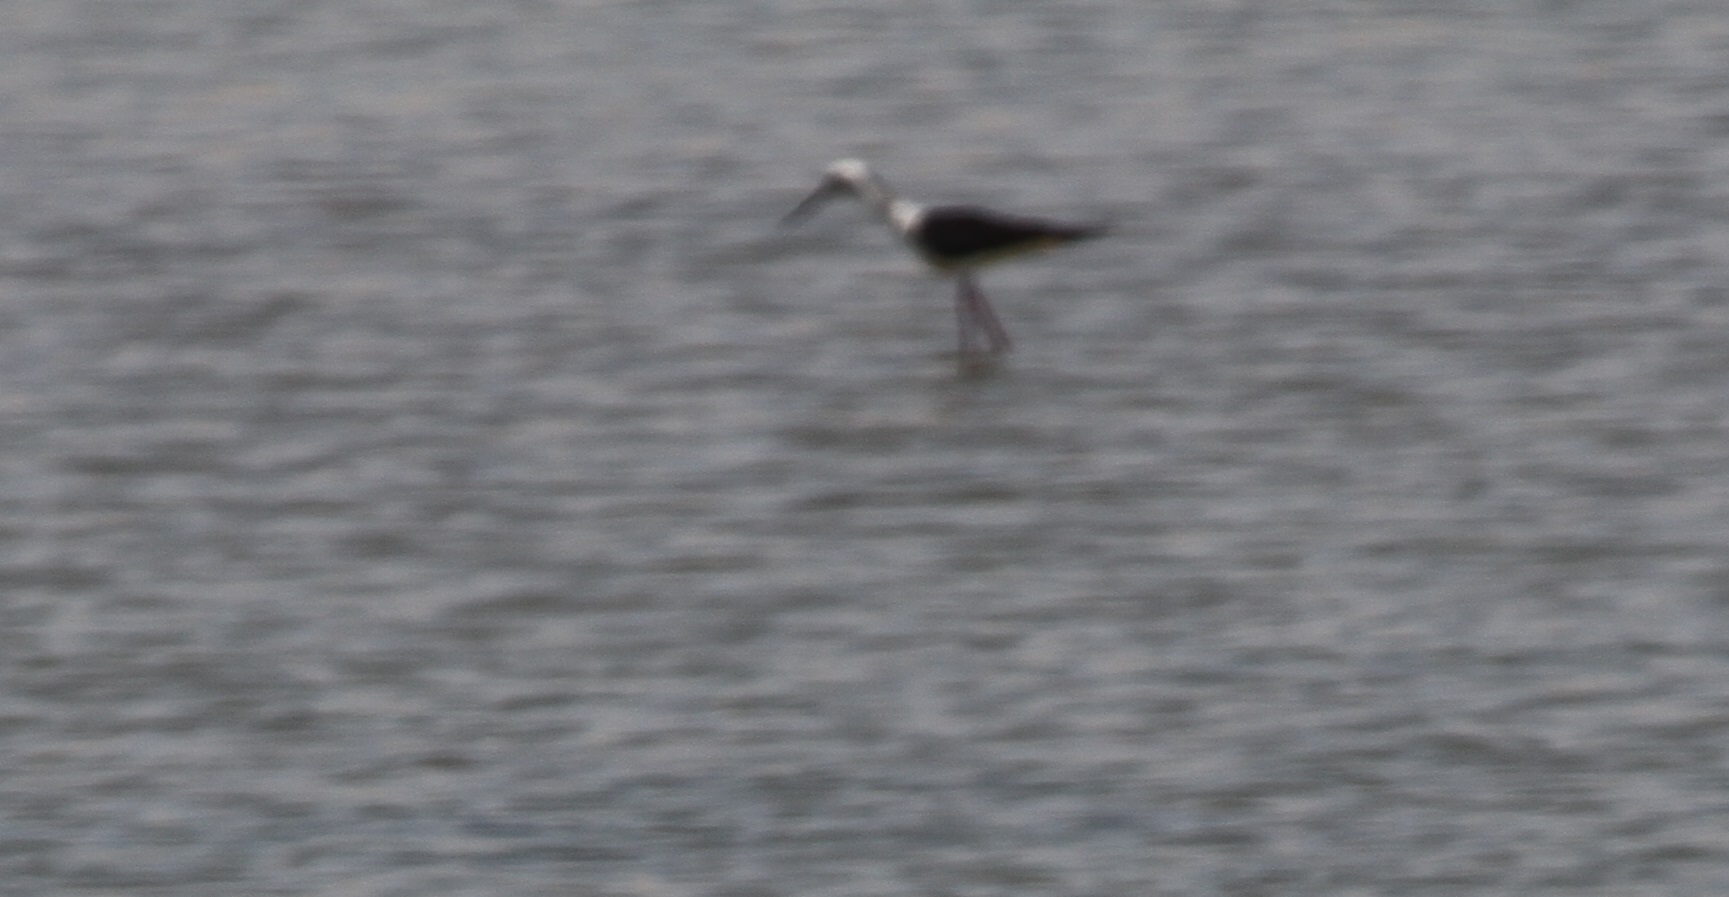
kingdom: Animalia
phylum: Chordata
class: Aves
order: Charadriiformes
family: Recurvirostridae
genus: Himantopus
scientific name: Himantopus himantopus
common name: Black-winged stilt
